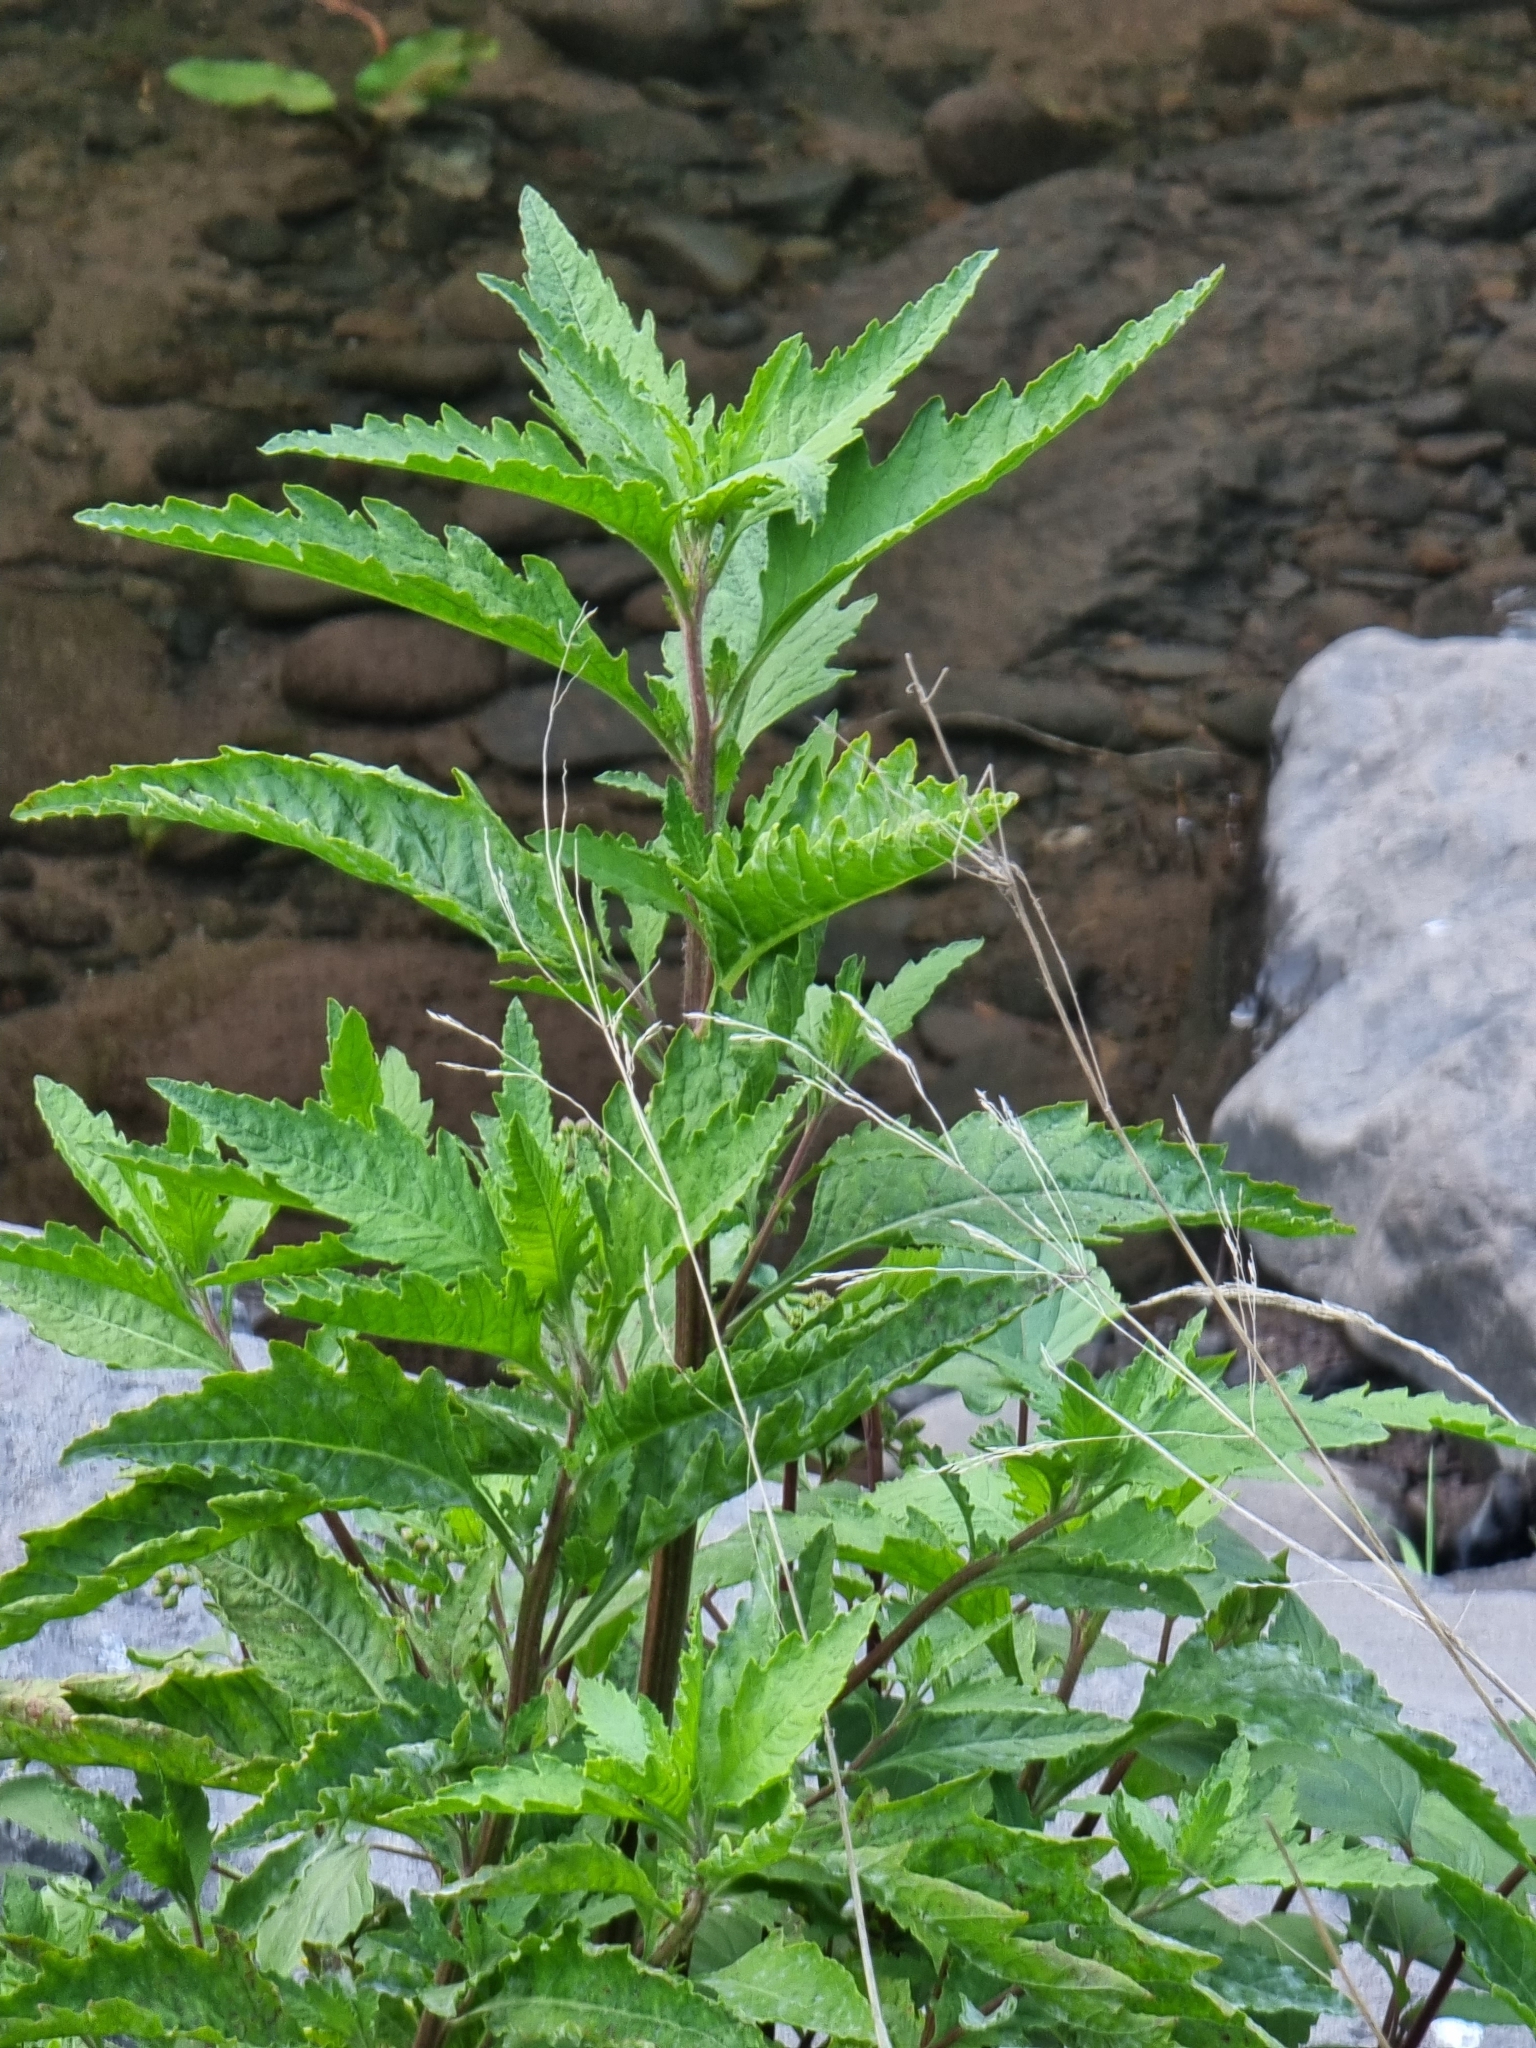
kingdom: Plantae
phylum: Tracheophyta
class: Magnoliopsida
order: Caryophyllales
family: Amaranthaceae
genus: Dysphania
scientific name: Dysphania ambrosioides
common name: Wormseed
